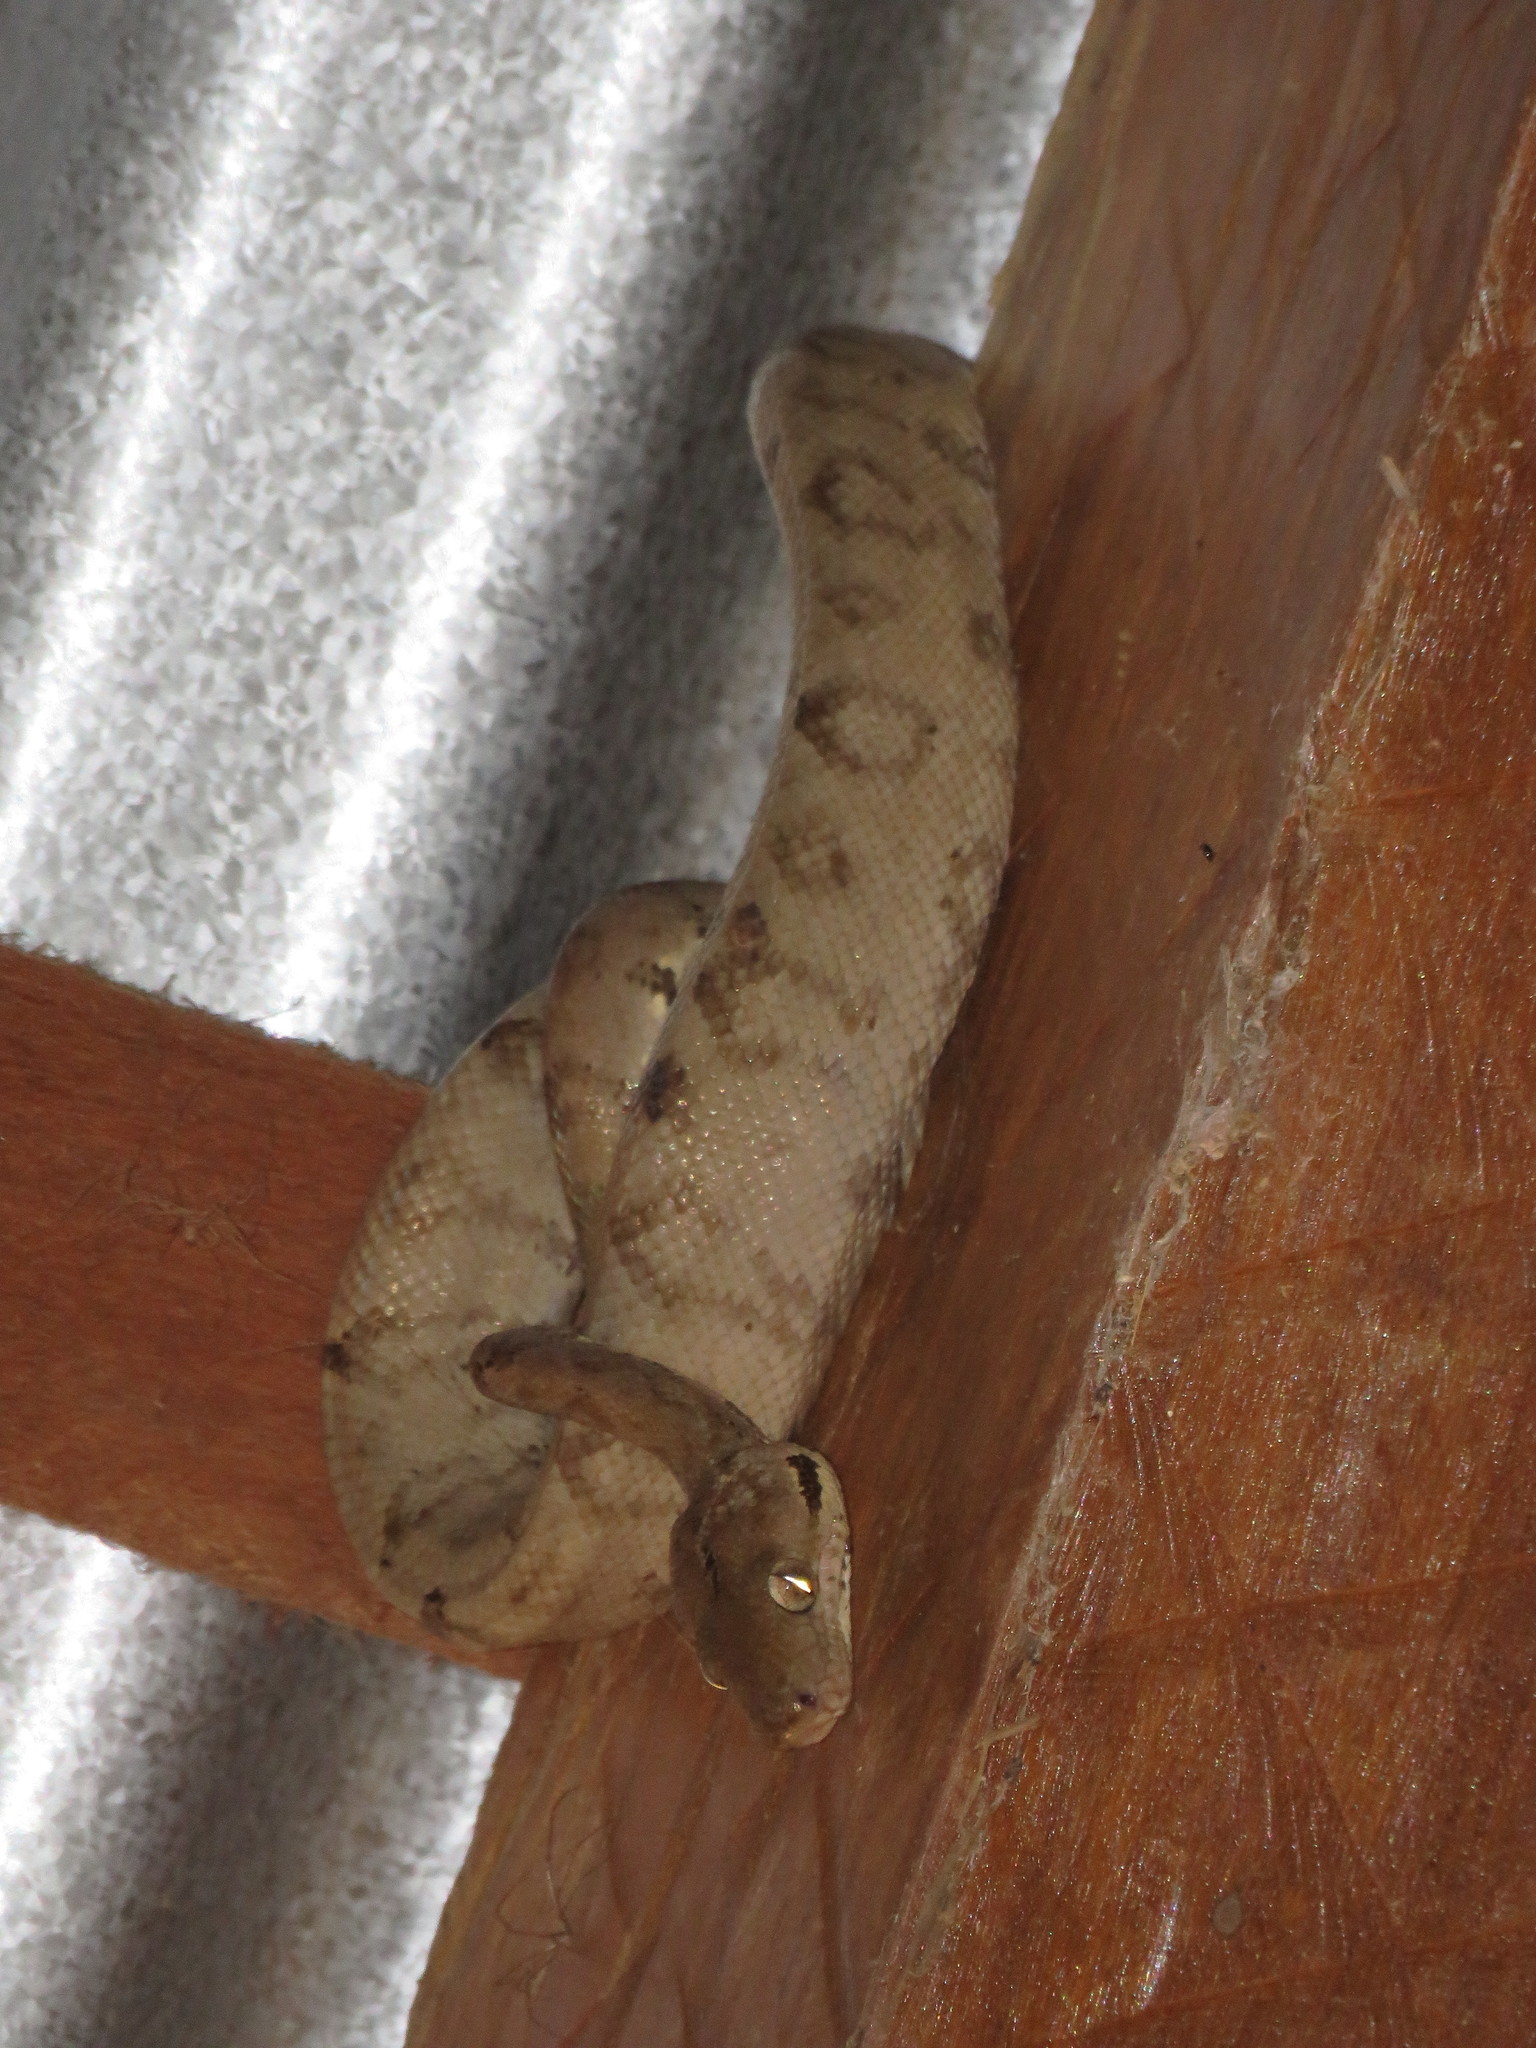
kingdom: Animalia
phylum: Chordata
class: Squamata
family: Boidae
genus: Corallus
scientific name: Corallus hortulana
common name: Garden tree boa
